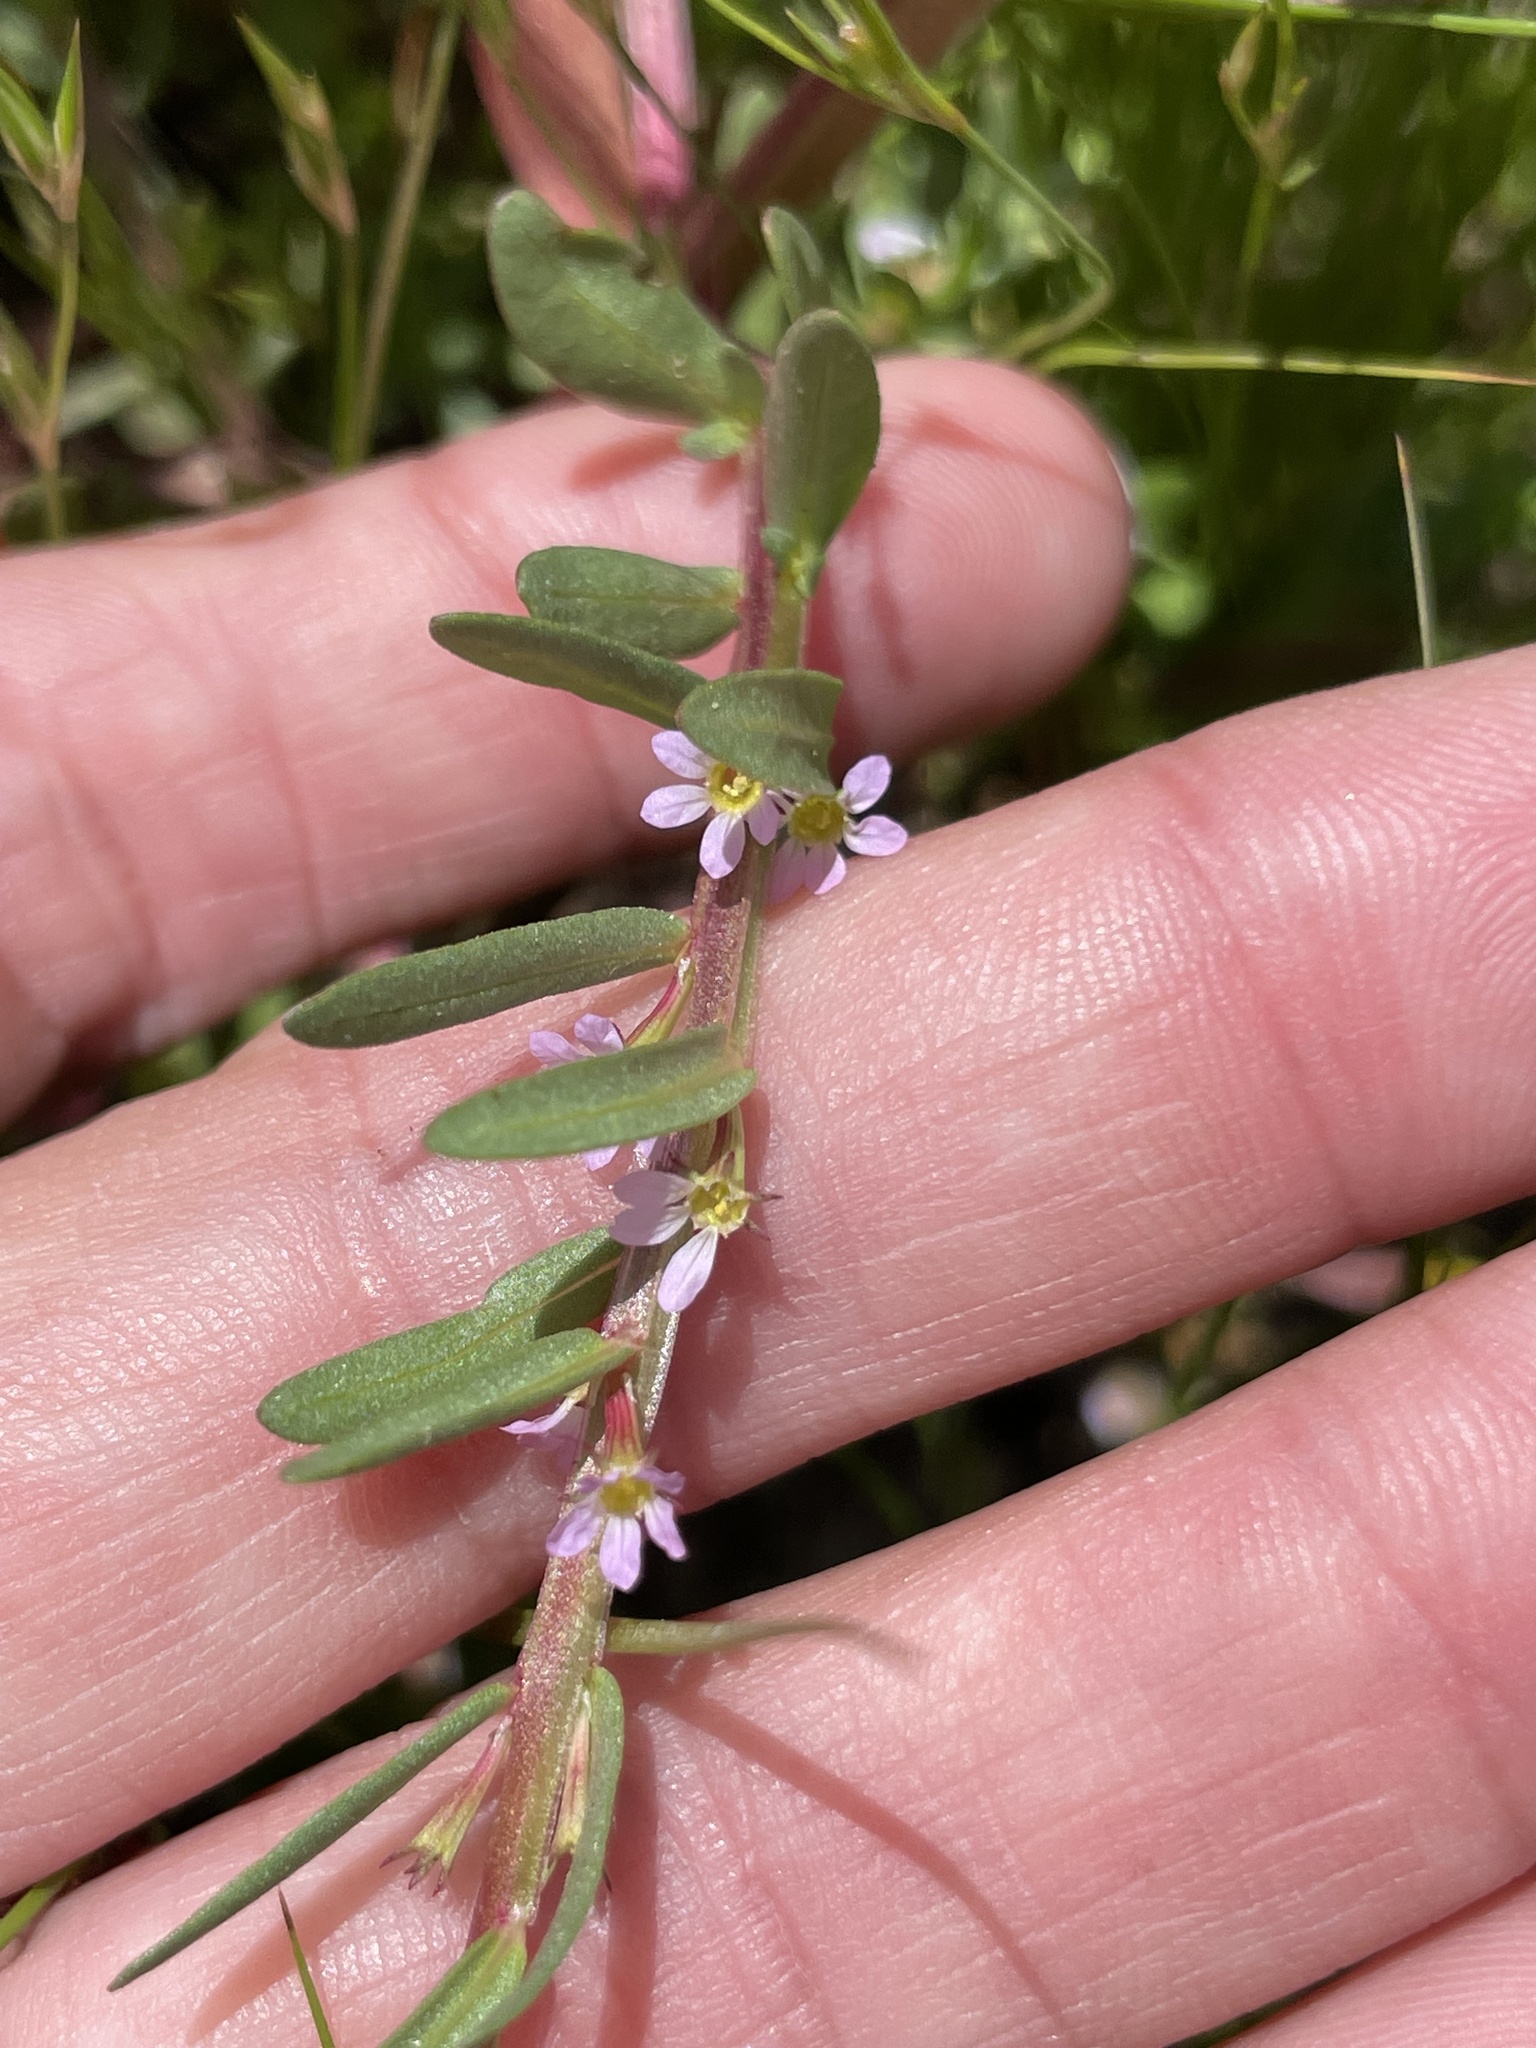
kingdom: Plantae
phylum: Tracheophyta
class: Magnoliopsida
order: Myrtales
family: Lythraceae
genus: Lythrum
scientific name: Lythrum hyssopifolia
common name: Grass-poly
